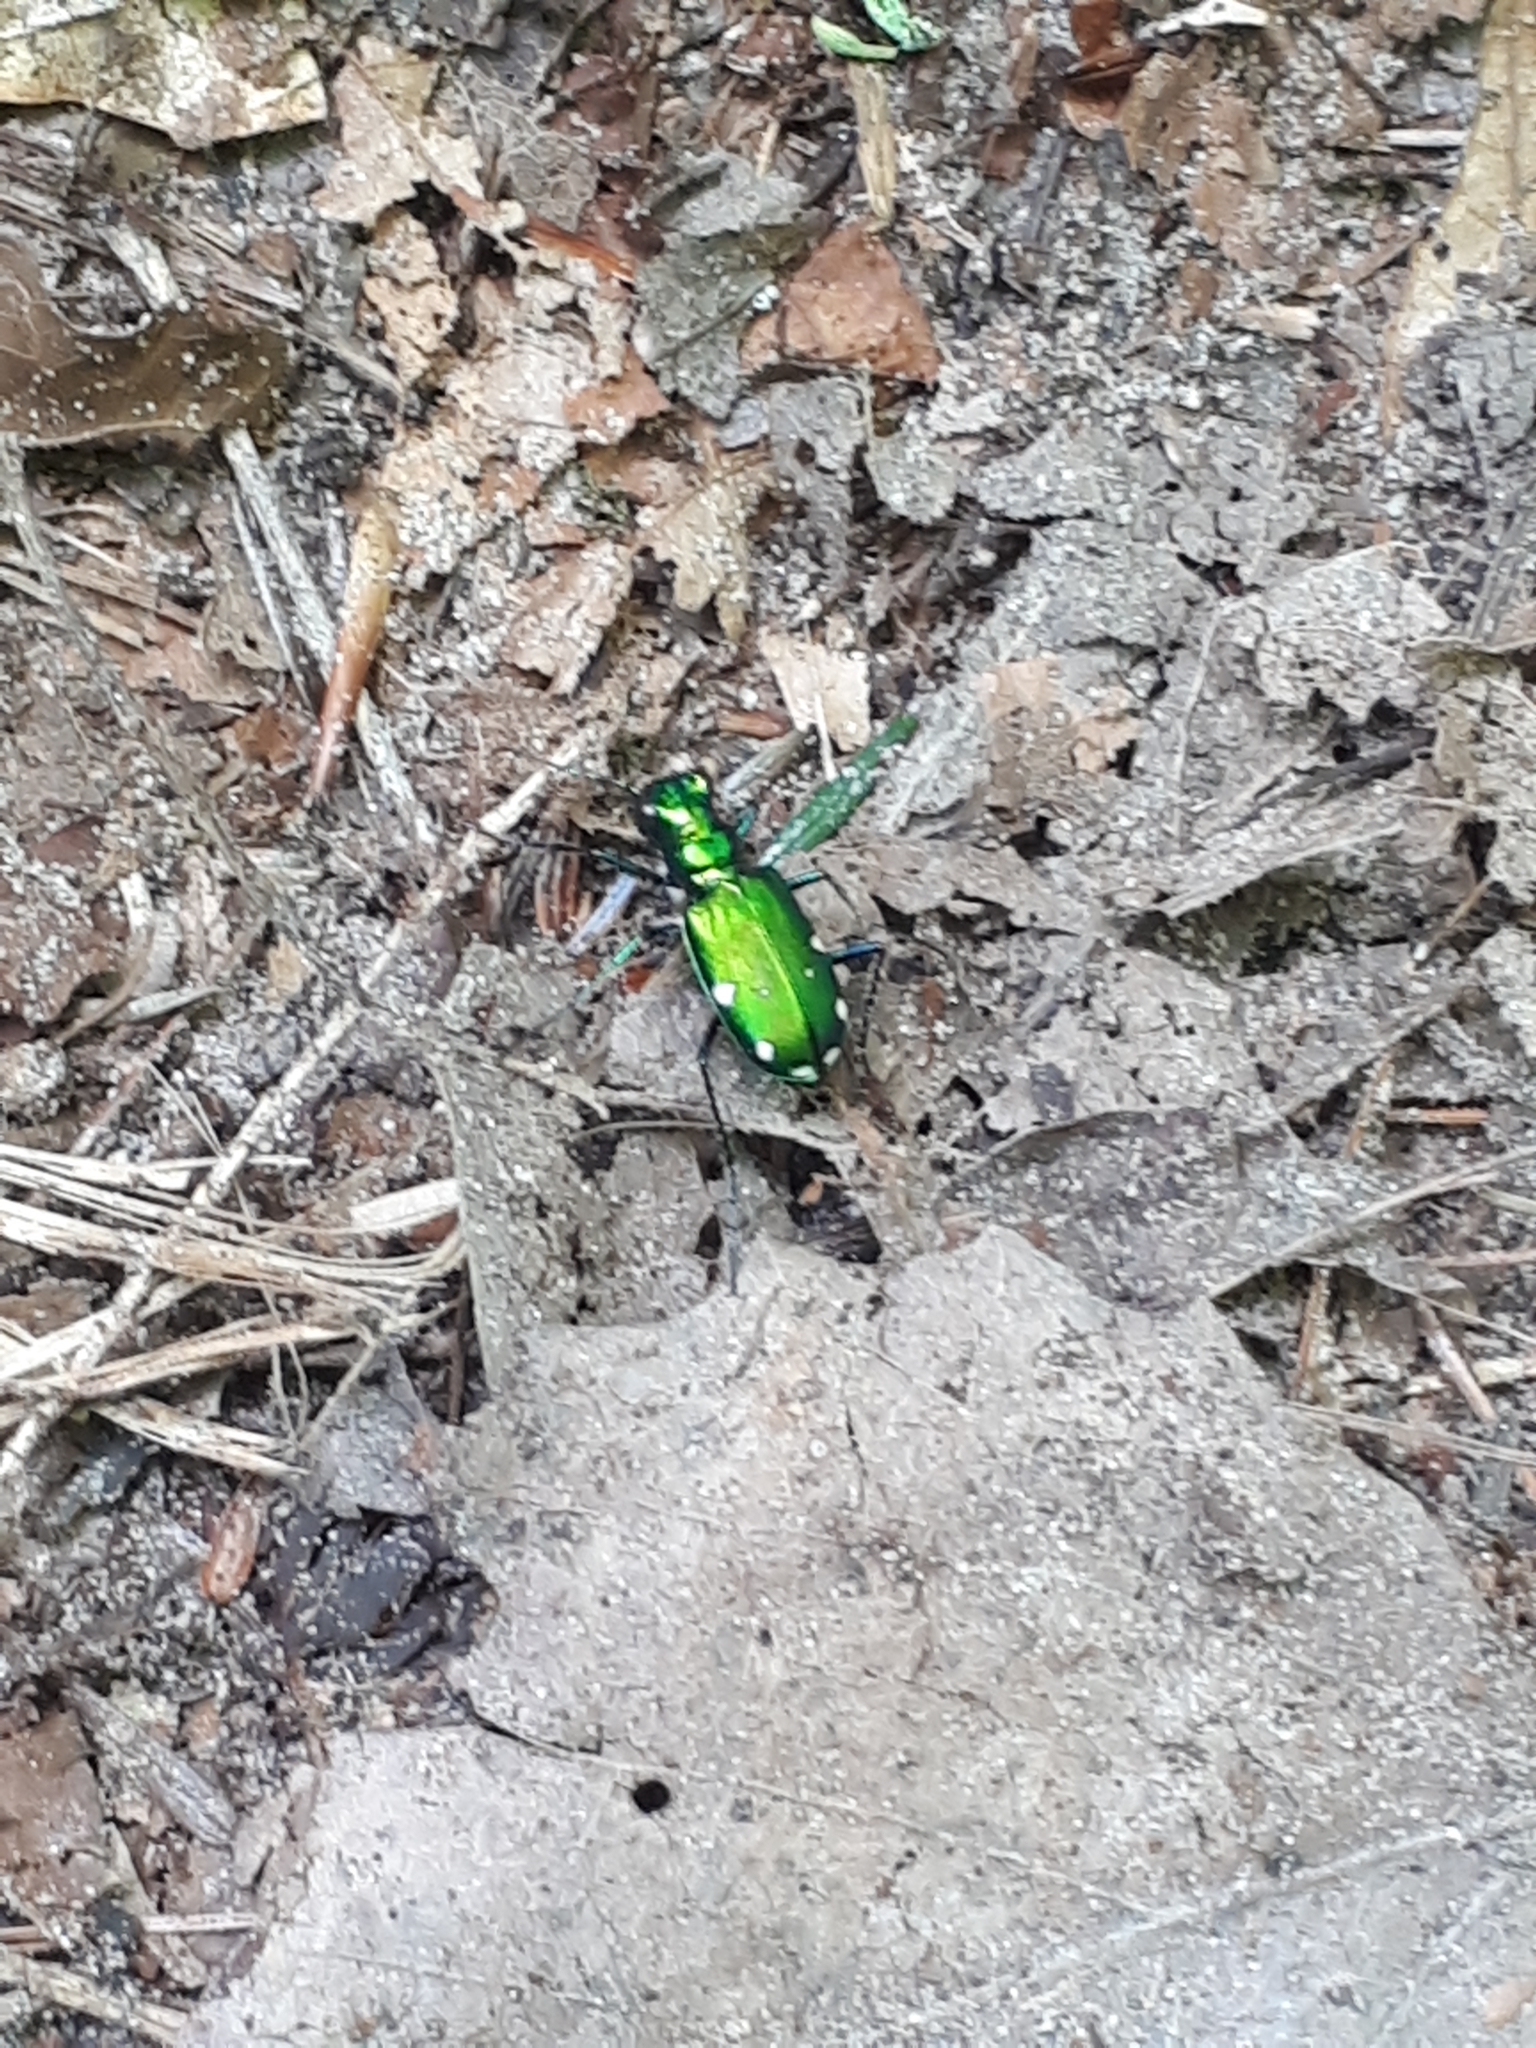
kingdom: Animalia
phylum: Arthropoda
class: Insecta
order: Coleoptera
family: Carabidae
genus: Cicindela
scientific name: Cicindela sexguttata
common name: Six-spotted tiger beetle
